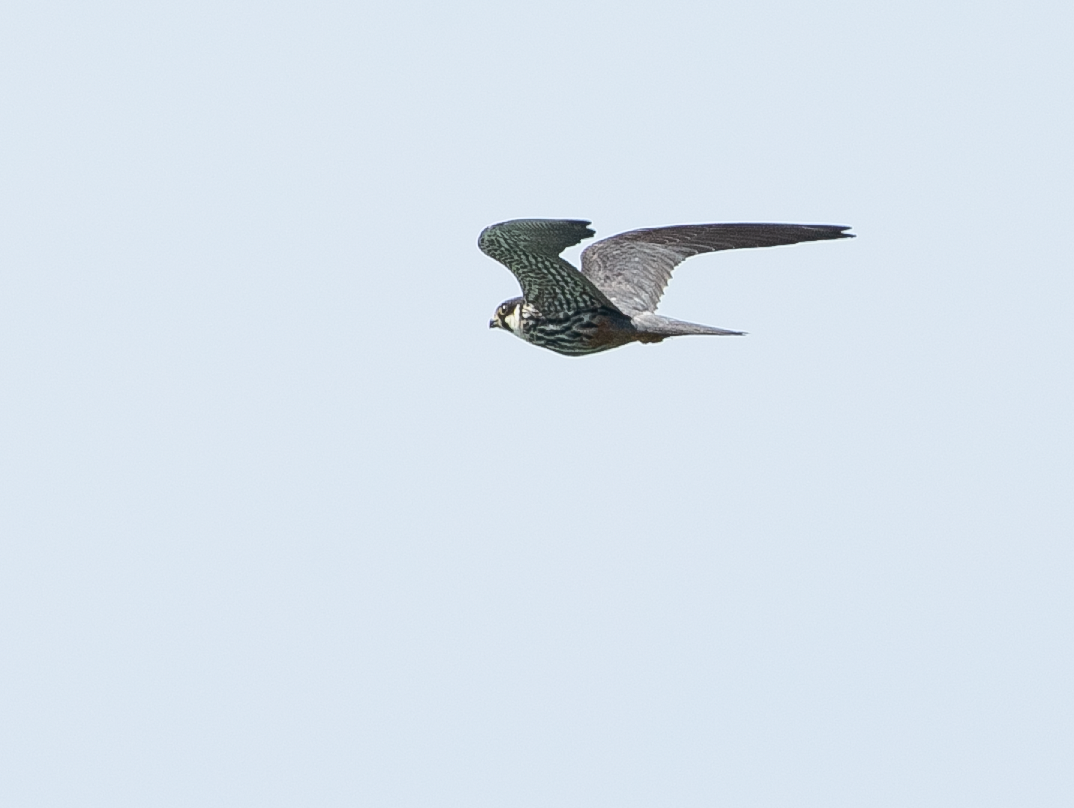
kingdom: Animalia
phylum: Chordata
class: Aves
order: Falconiformes
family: Falconidae
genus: Falco
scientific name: Falco subbuteo
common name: Eurasian hobby
